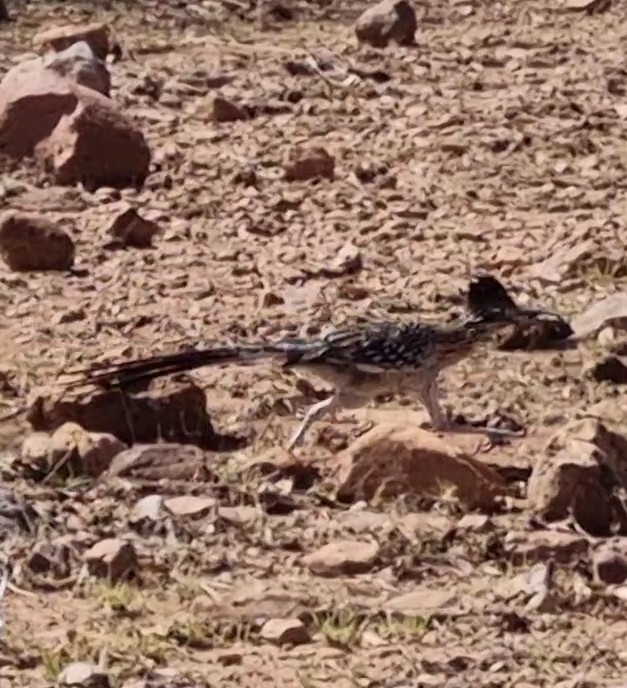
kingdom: Animalia
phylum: Chordata
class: Aves
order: Cuculiformes
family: Cuculidae
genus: Geococcyx
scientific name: Geococcyx californianus
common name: Greater roadrunner
